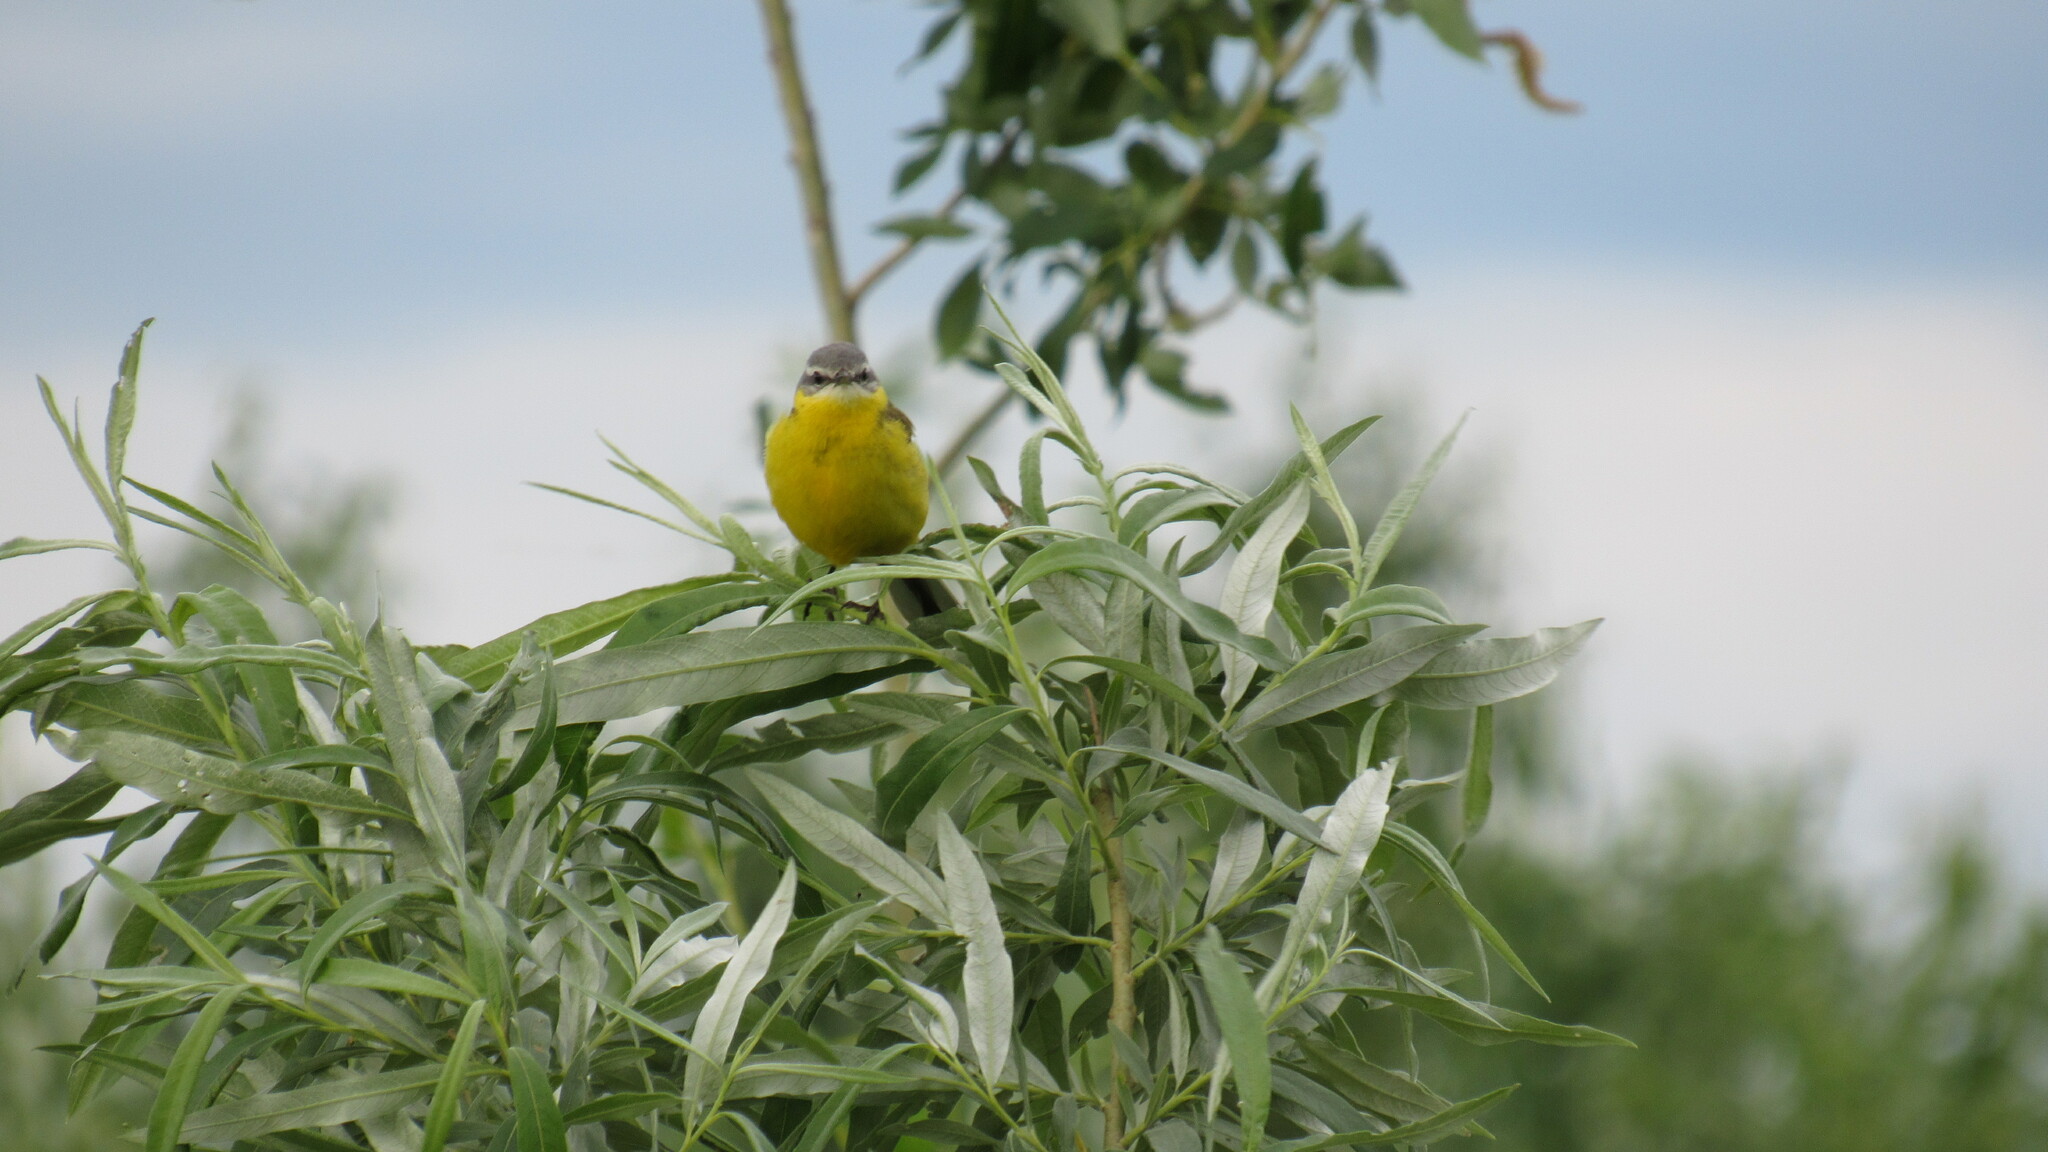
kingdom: Animalia
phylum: Chordata
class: Aves
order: Passeriformes
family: Motacillidae
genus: Motacilla
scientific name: Motacilla flava
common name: Western yellow wagtail
